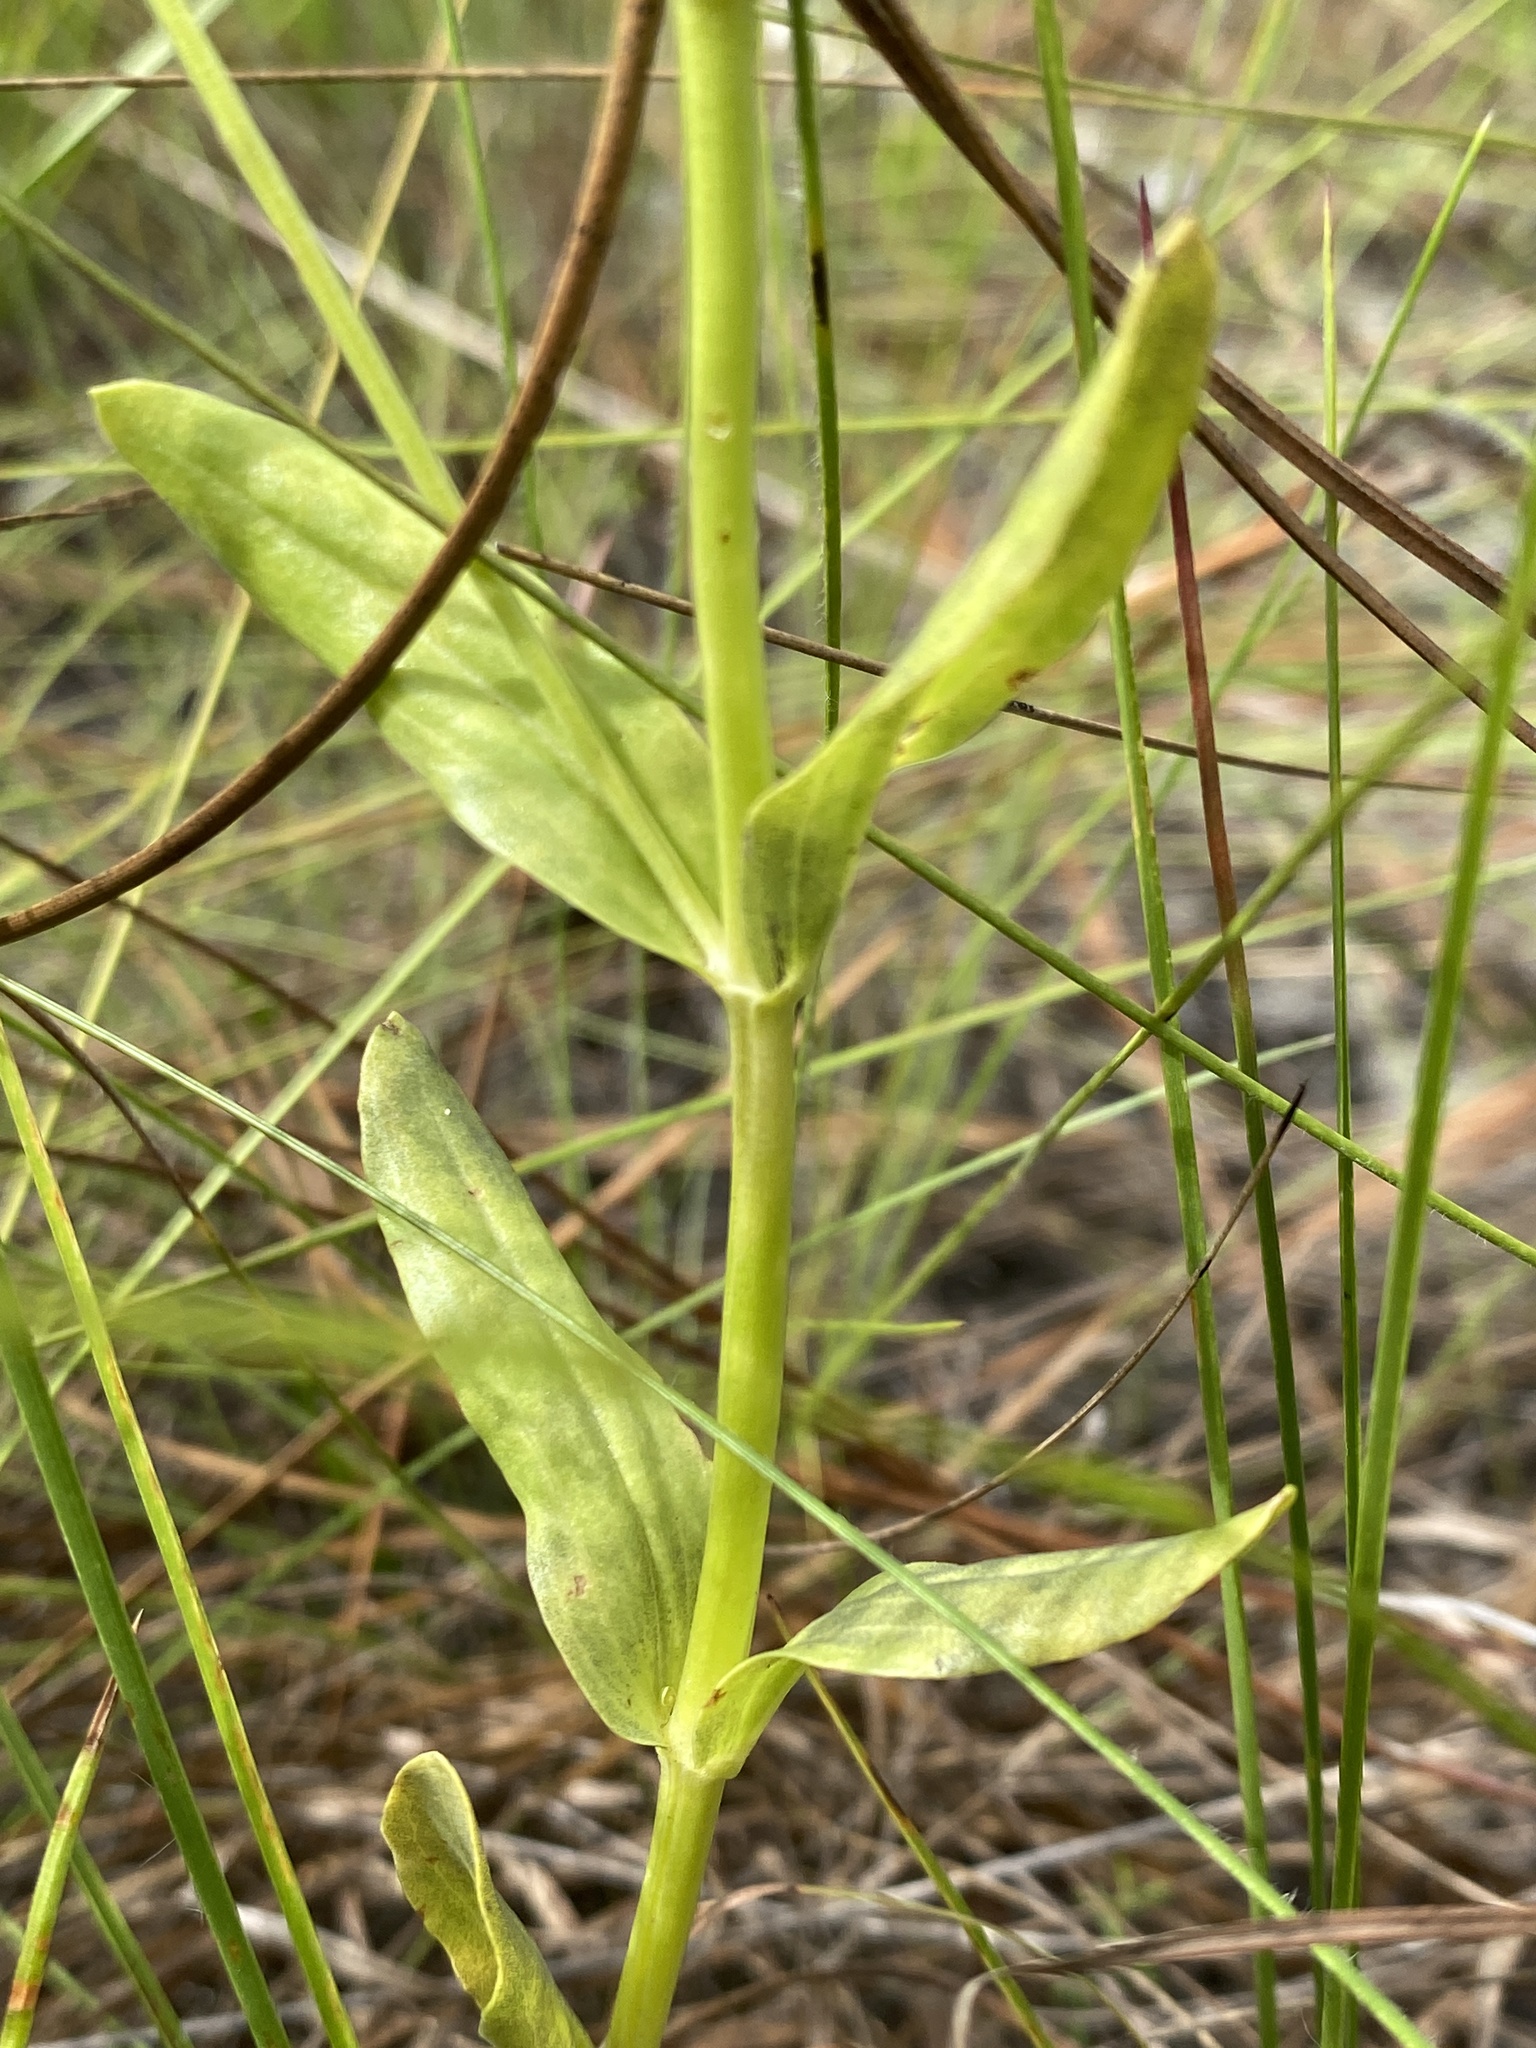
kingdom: Plantae
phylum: Tracheophyta
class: Magnoliopsida
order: Gentianales
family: Gentianaceae
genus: Sabatia
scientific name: Sabatia quadrangula
